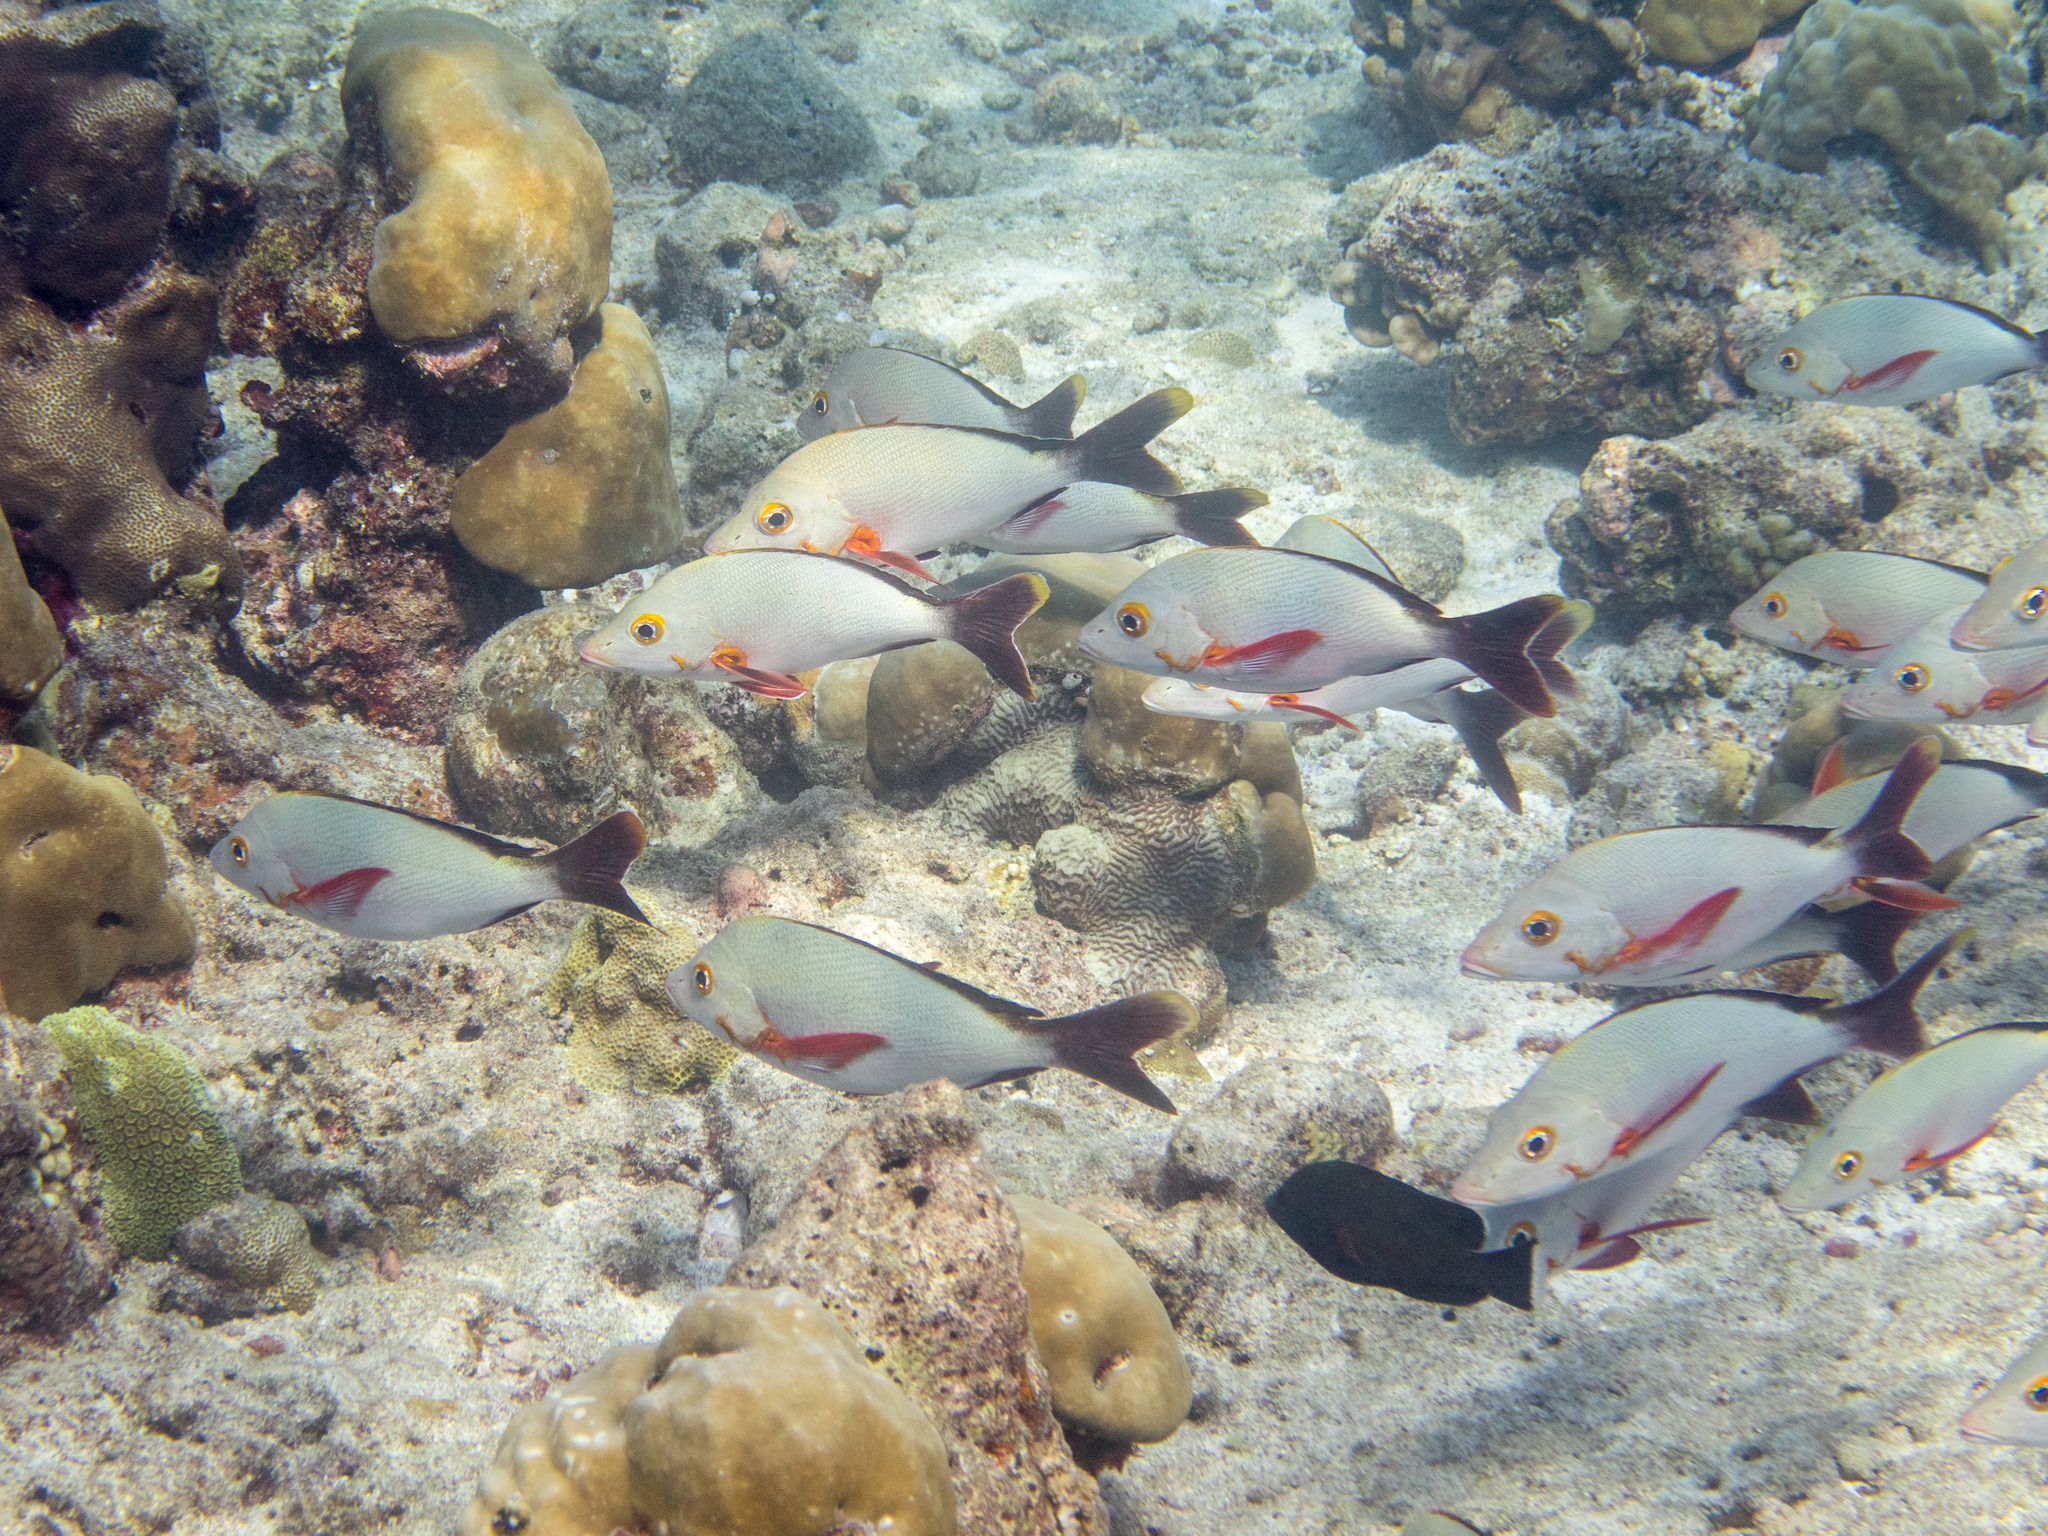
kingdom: Animalia
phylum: Chordata
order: Perciformes
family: Lutjanidae
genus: Lutjanus
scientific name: Lutjanus gibbus
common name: Humpback snapper
